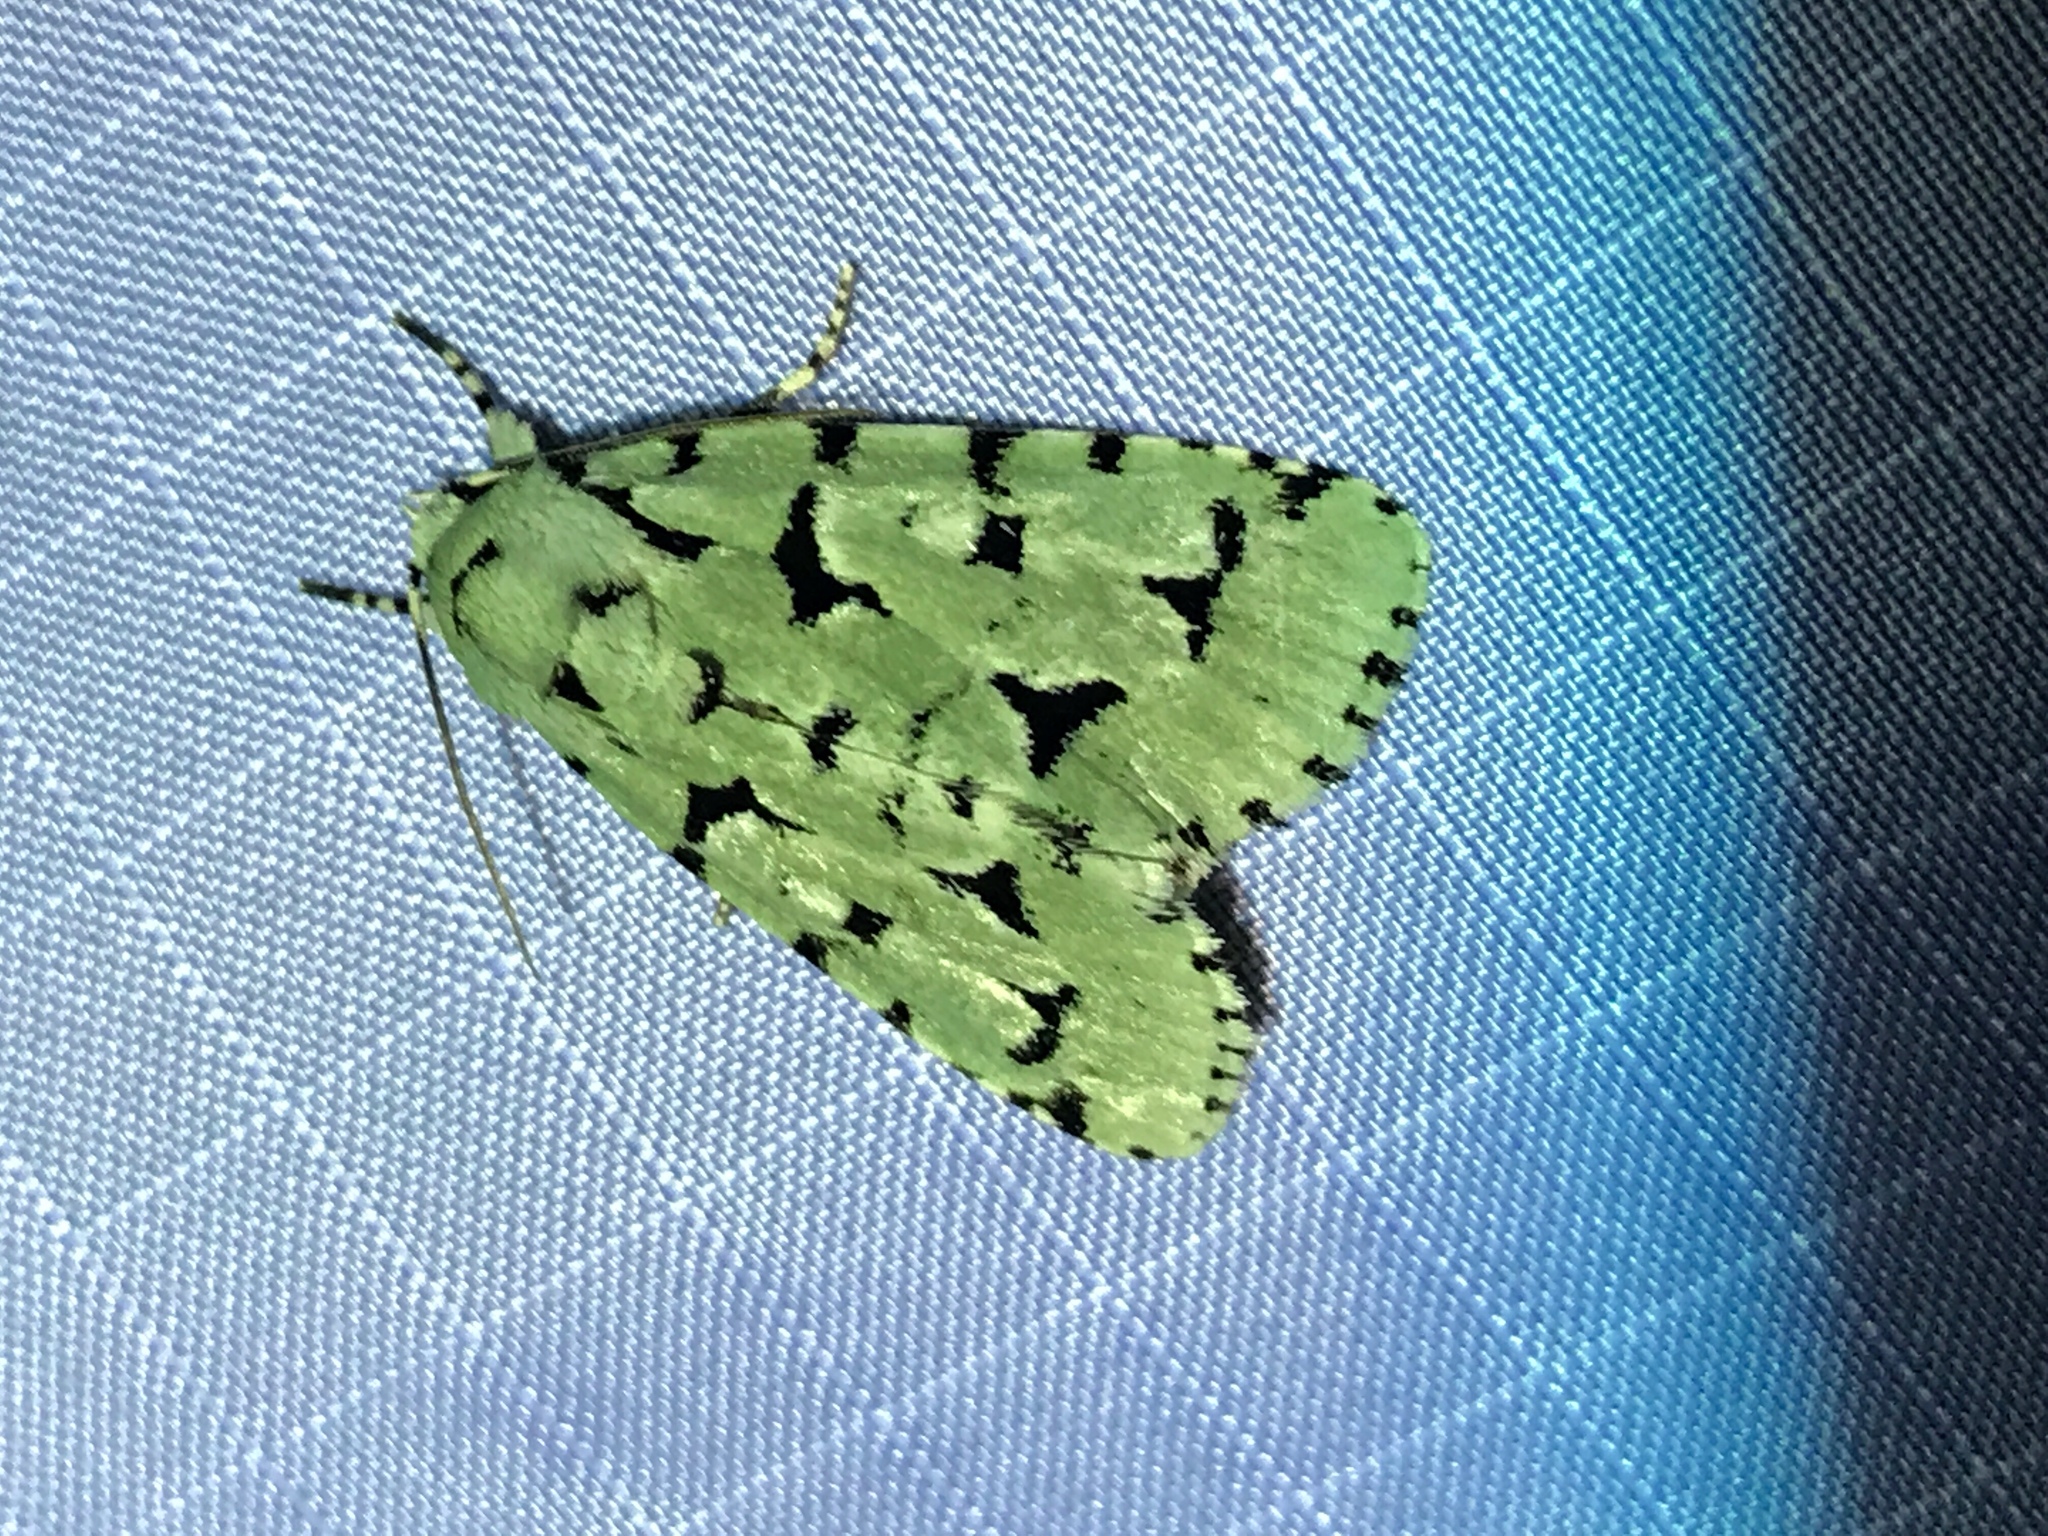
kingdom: Animalia
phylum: Arthropoda
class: Insecta
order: Lepidoptera
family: Noctuidae
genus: Acronicta
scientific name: Acronicta fallax
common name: Green marvel
